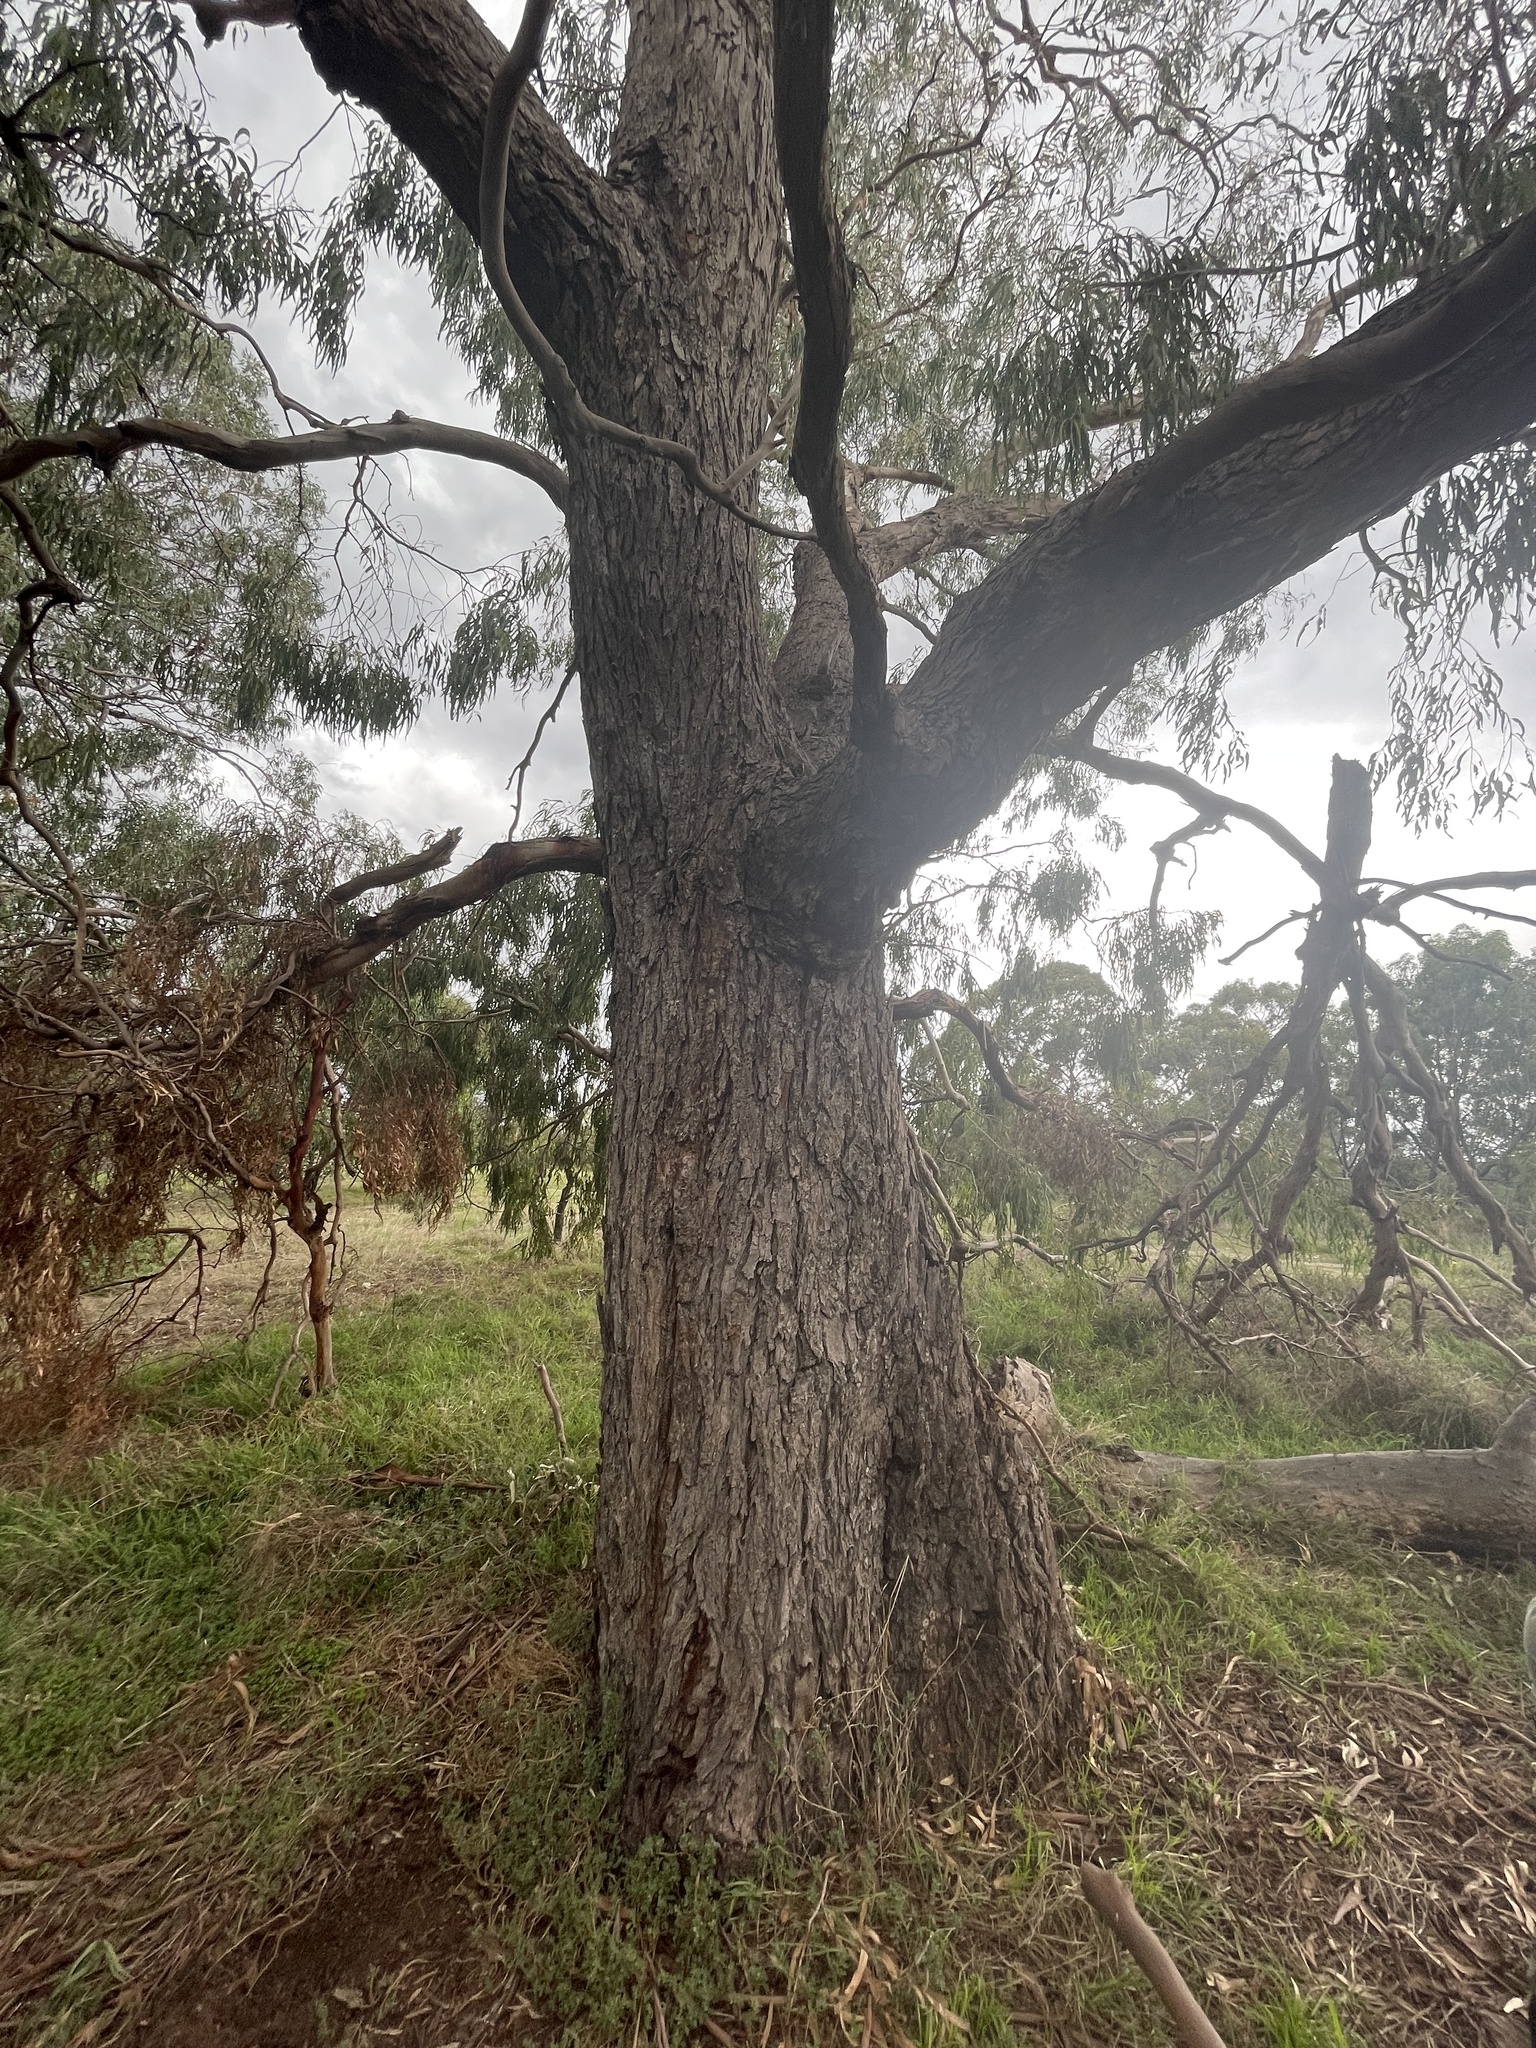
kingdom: Plantae
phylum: Tracheophyta
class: Magnoliopsida
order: Myrtales
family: Myrtaceae
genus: Eucalyptus
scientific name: Eucalyptus viminalis
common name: Manna gum
